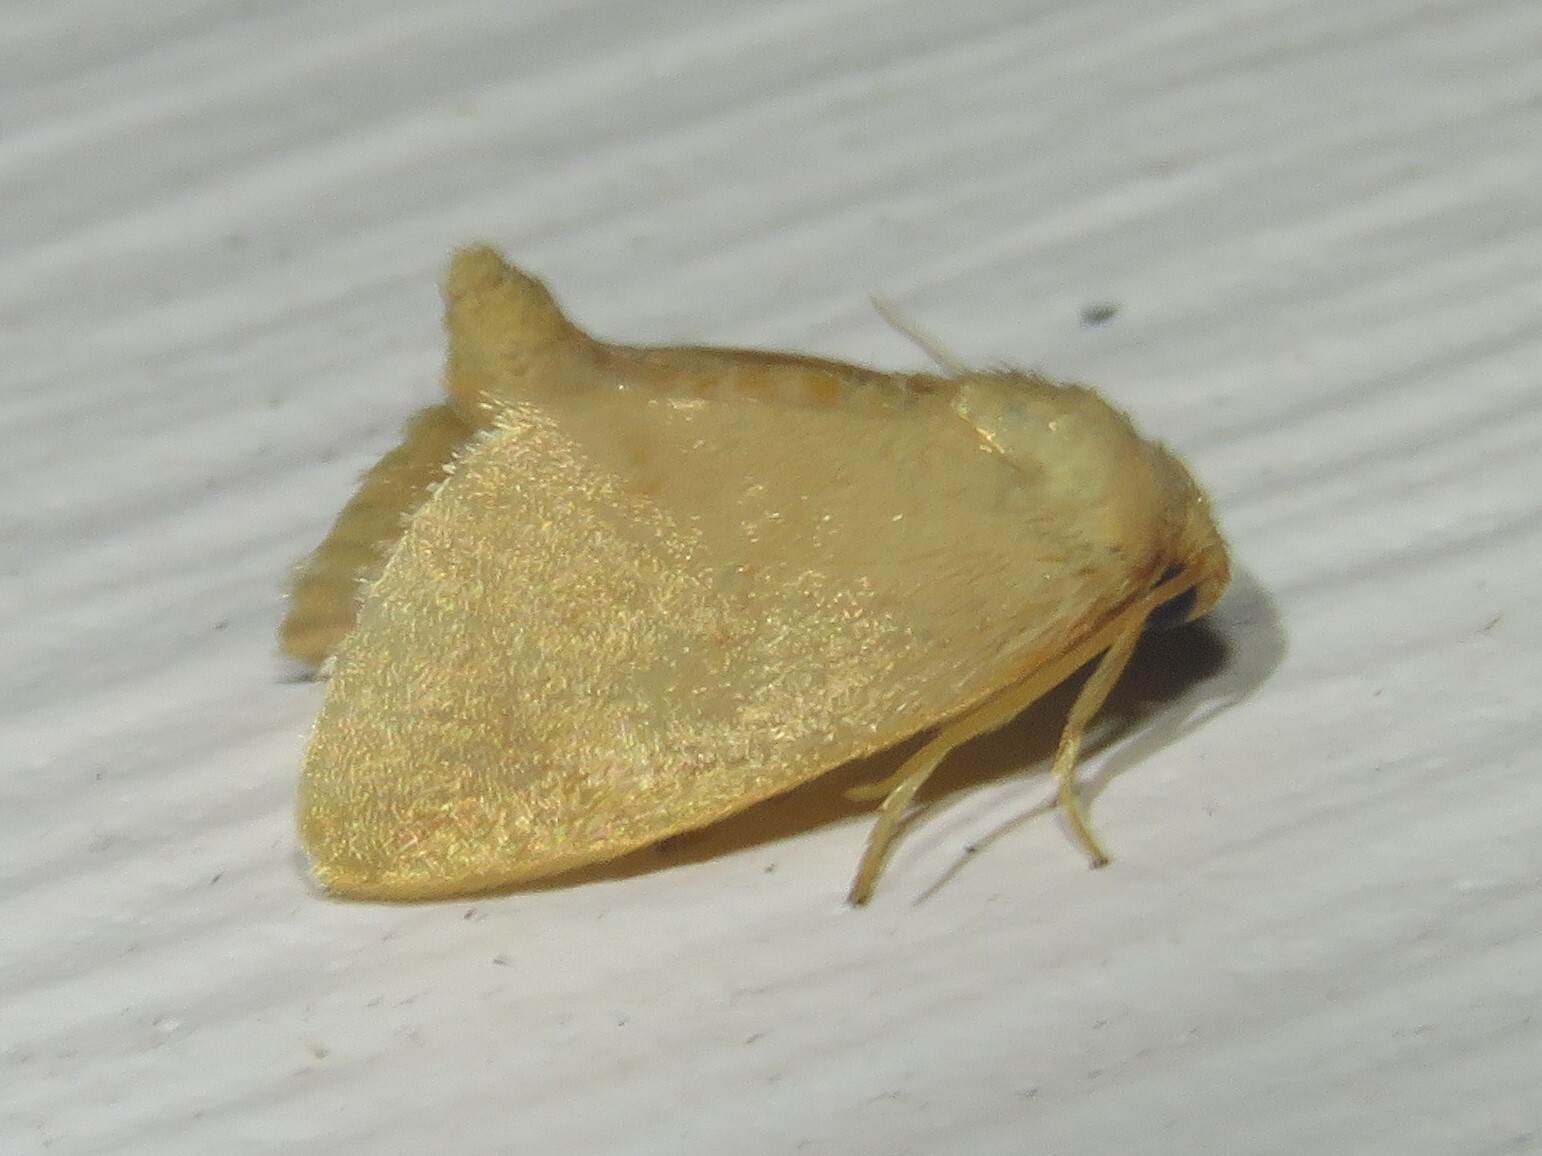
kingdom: Animalia
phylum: Arthropoda
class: Insecta
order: Lepidoptera
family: Limacodidae
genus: Tortricidia
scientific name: Tortricidia pallida
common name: Red-crossed button slug moth
